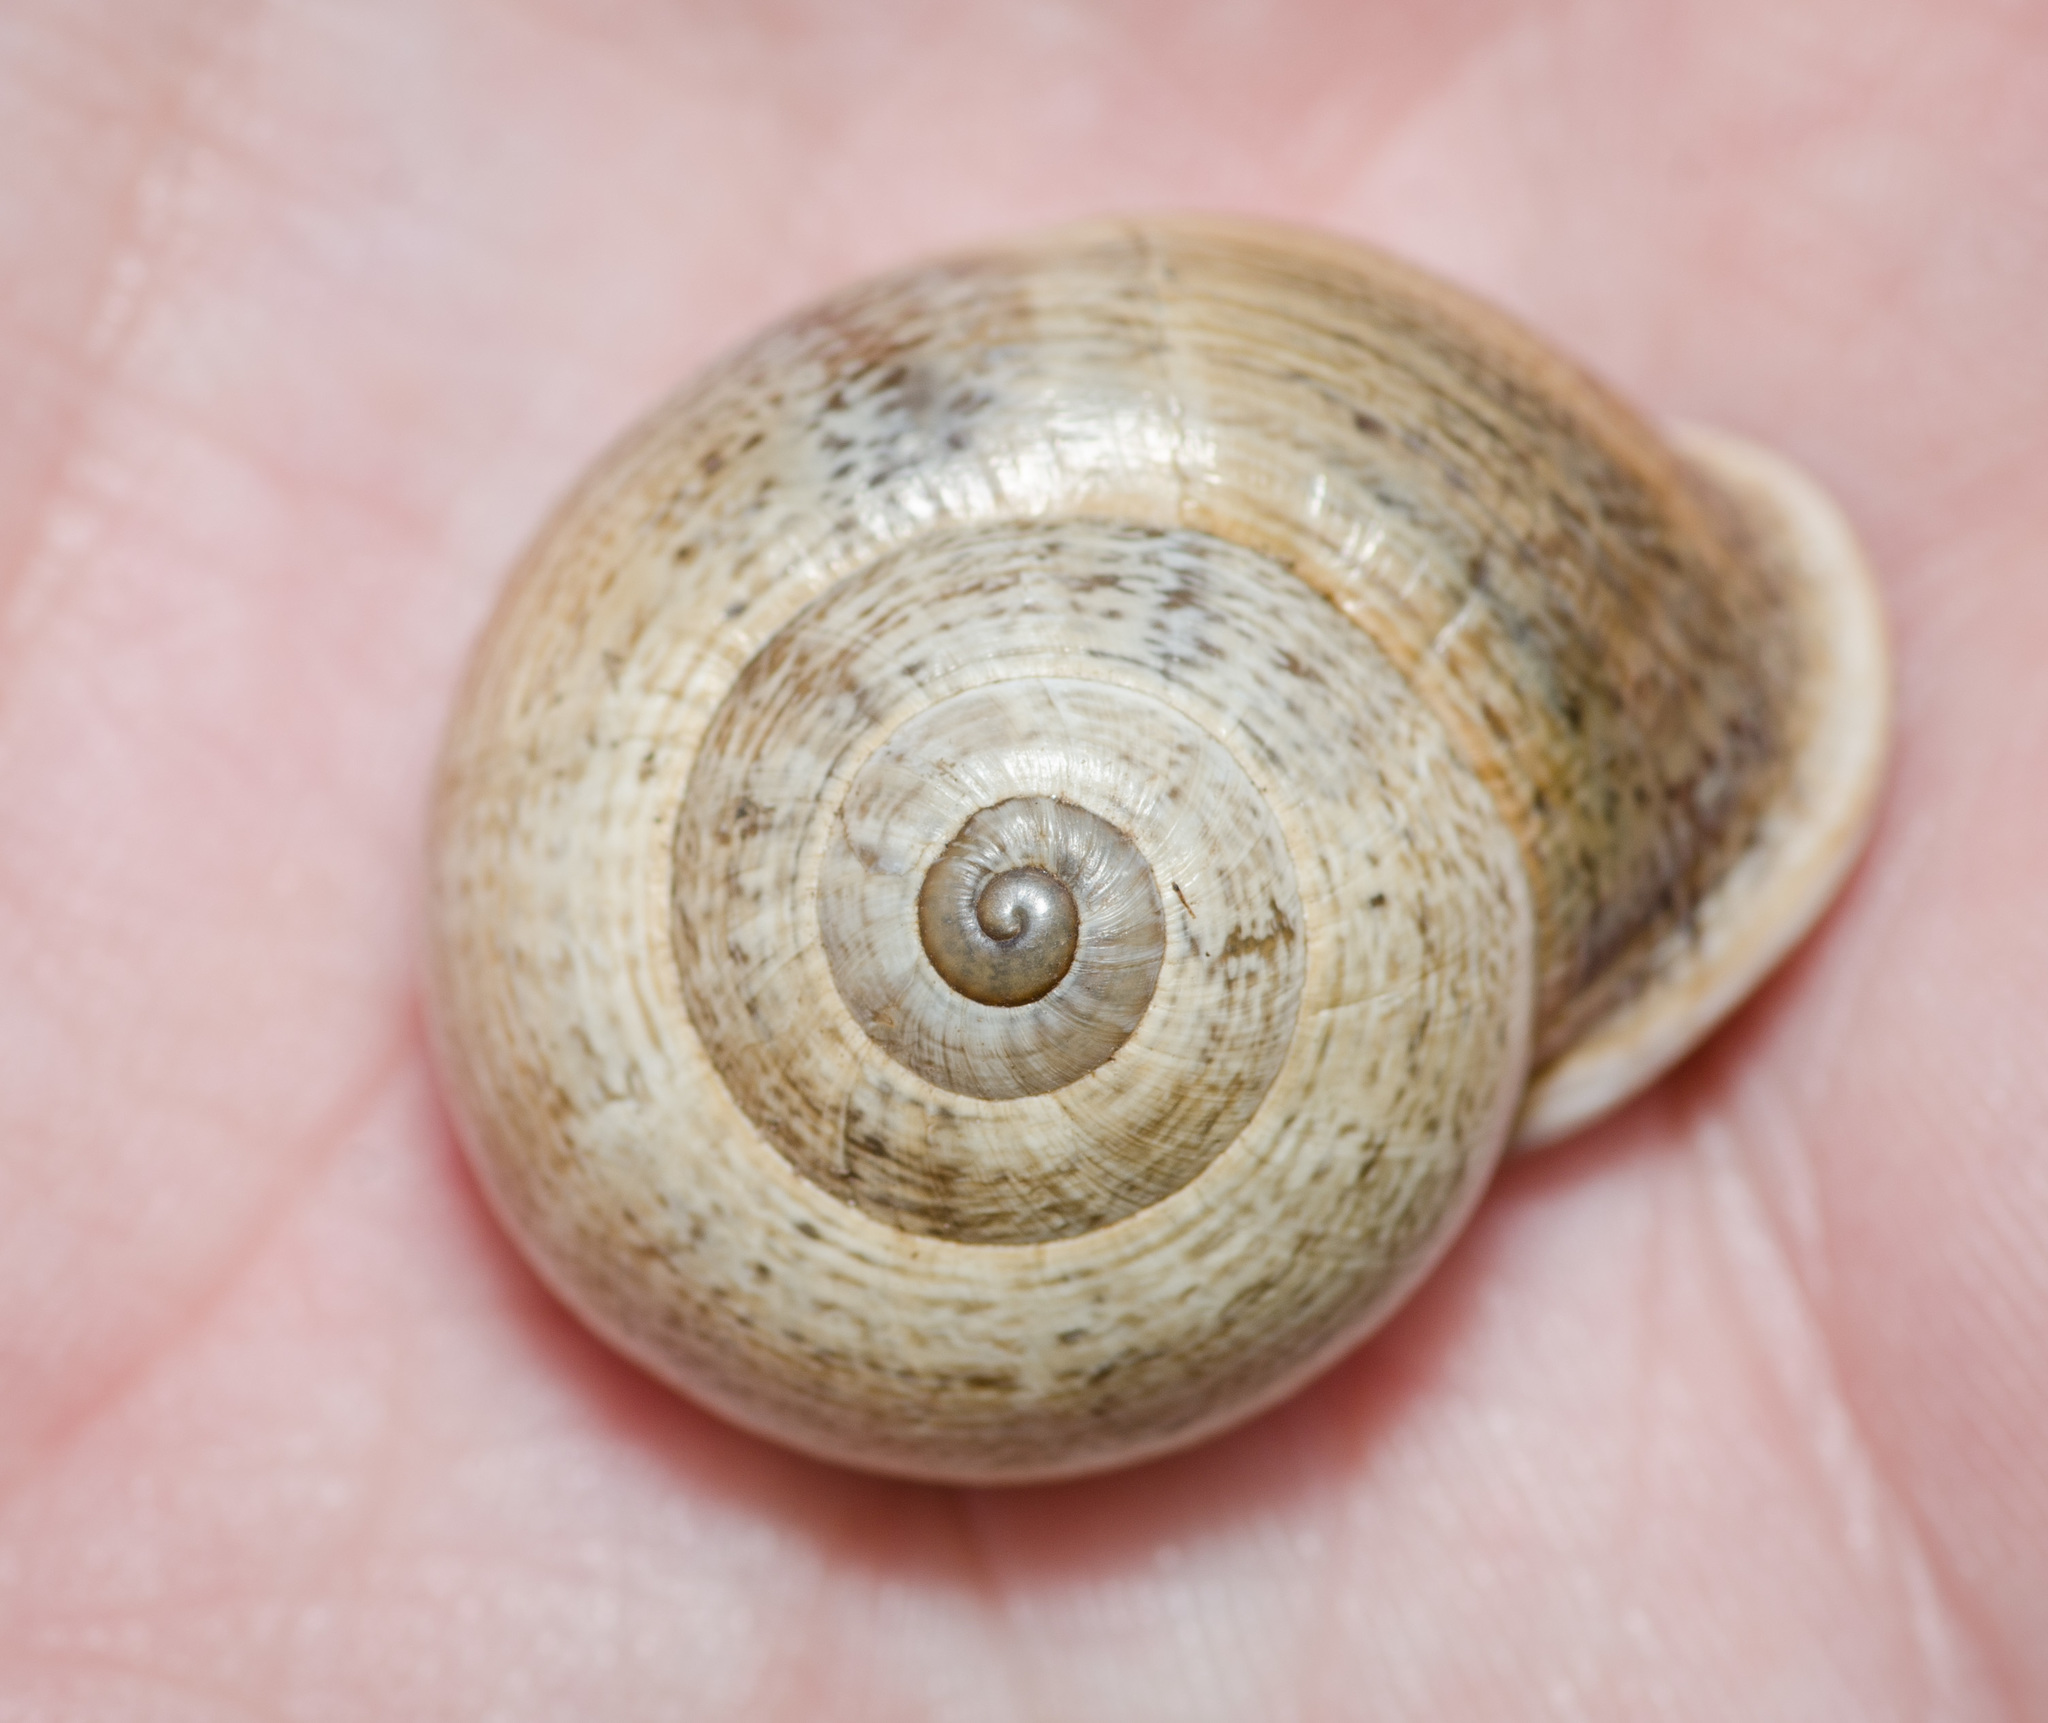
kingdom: Animalia
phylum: Mollusca
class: Gastropoda
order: Stylommatophora
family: Helicidae
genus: Otala
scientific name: Otala lactea
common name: Milk snail
